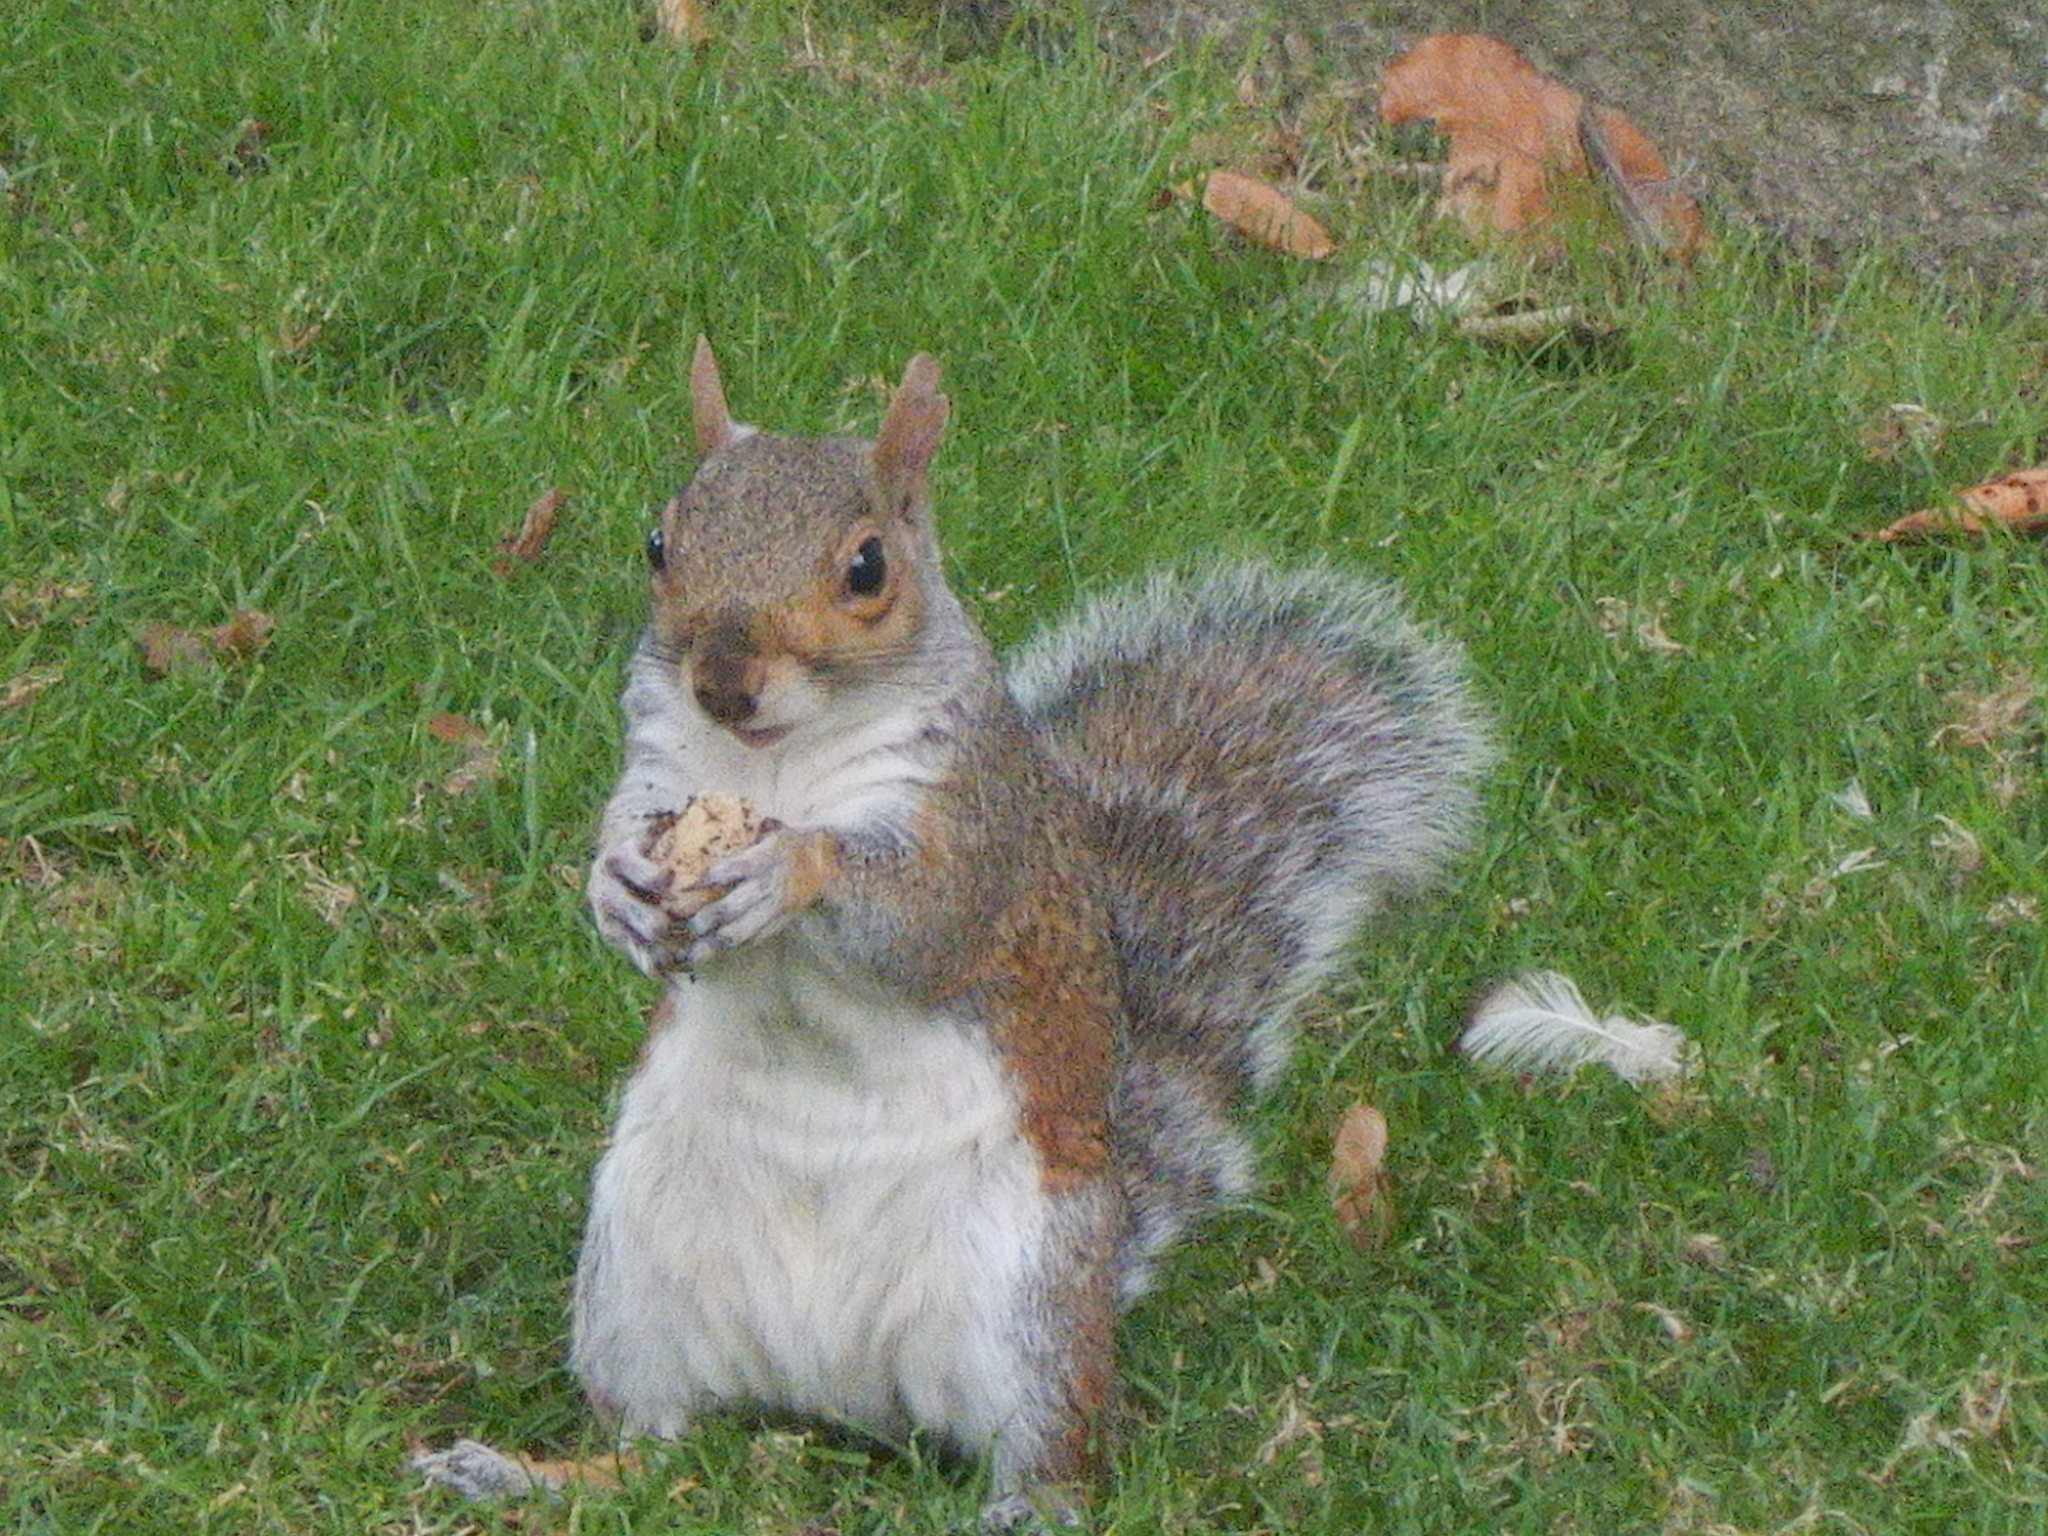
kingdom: Animalia
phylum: Chordata
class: Mammalia
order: Rodentia
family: Sciuridae
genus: Sciurus
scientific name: Sciurus carolinensis
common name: Eastern gray squirrel
